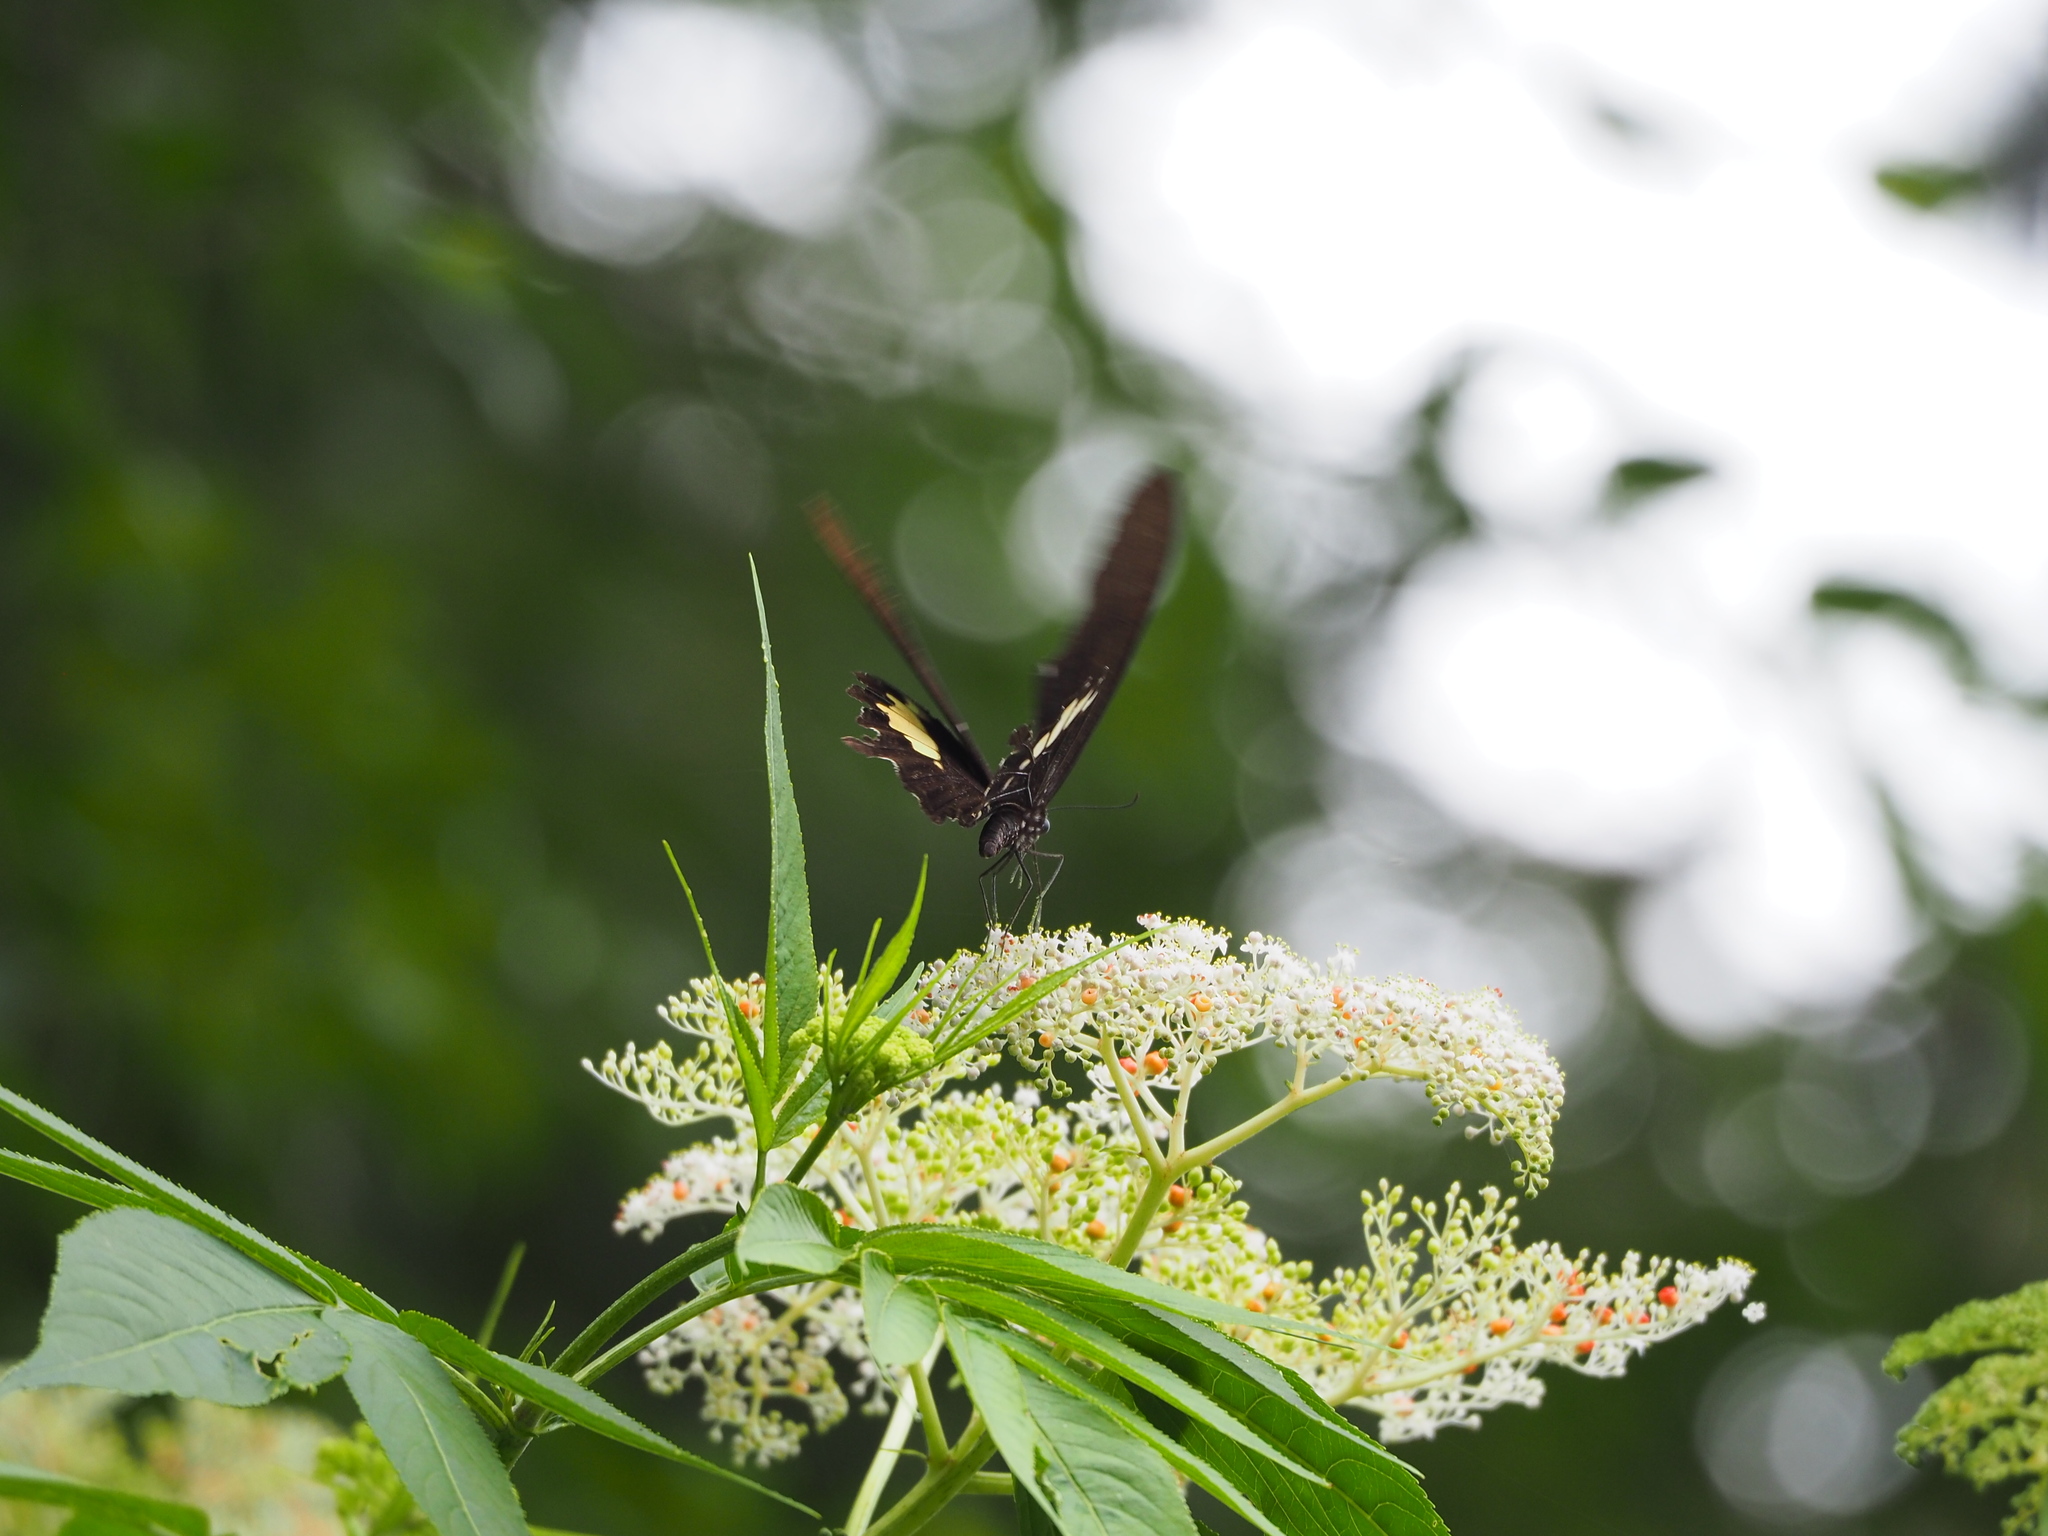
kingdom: Animalia
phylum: Arthropoda
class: Insecta
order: Lepidoptera
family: Papilionidae
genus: Papilio
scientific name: Papilio nephelus
